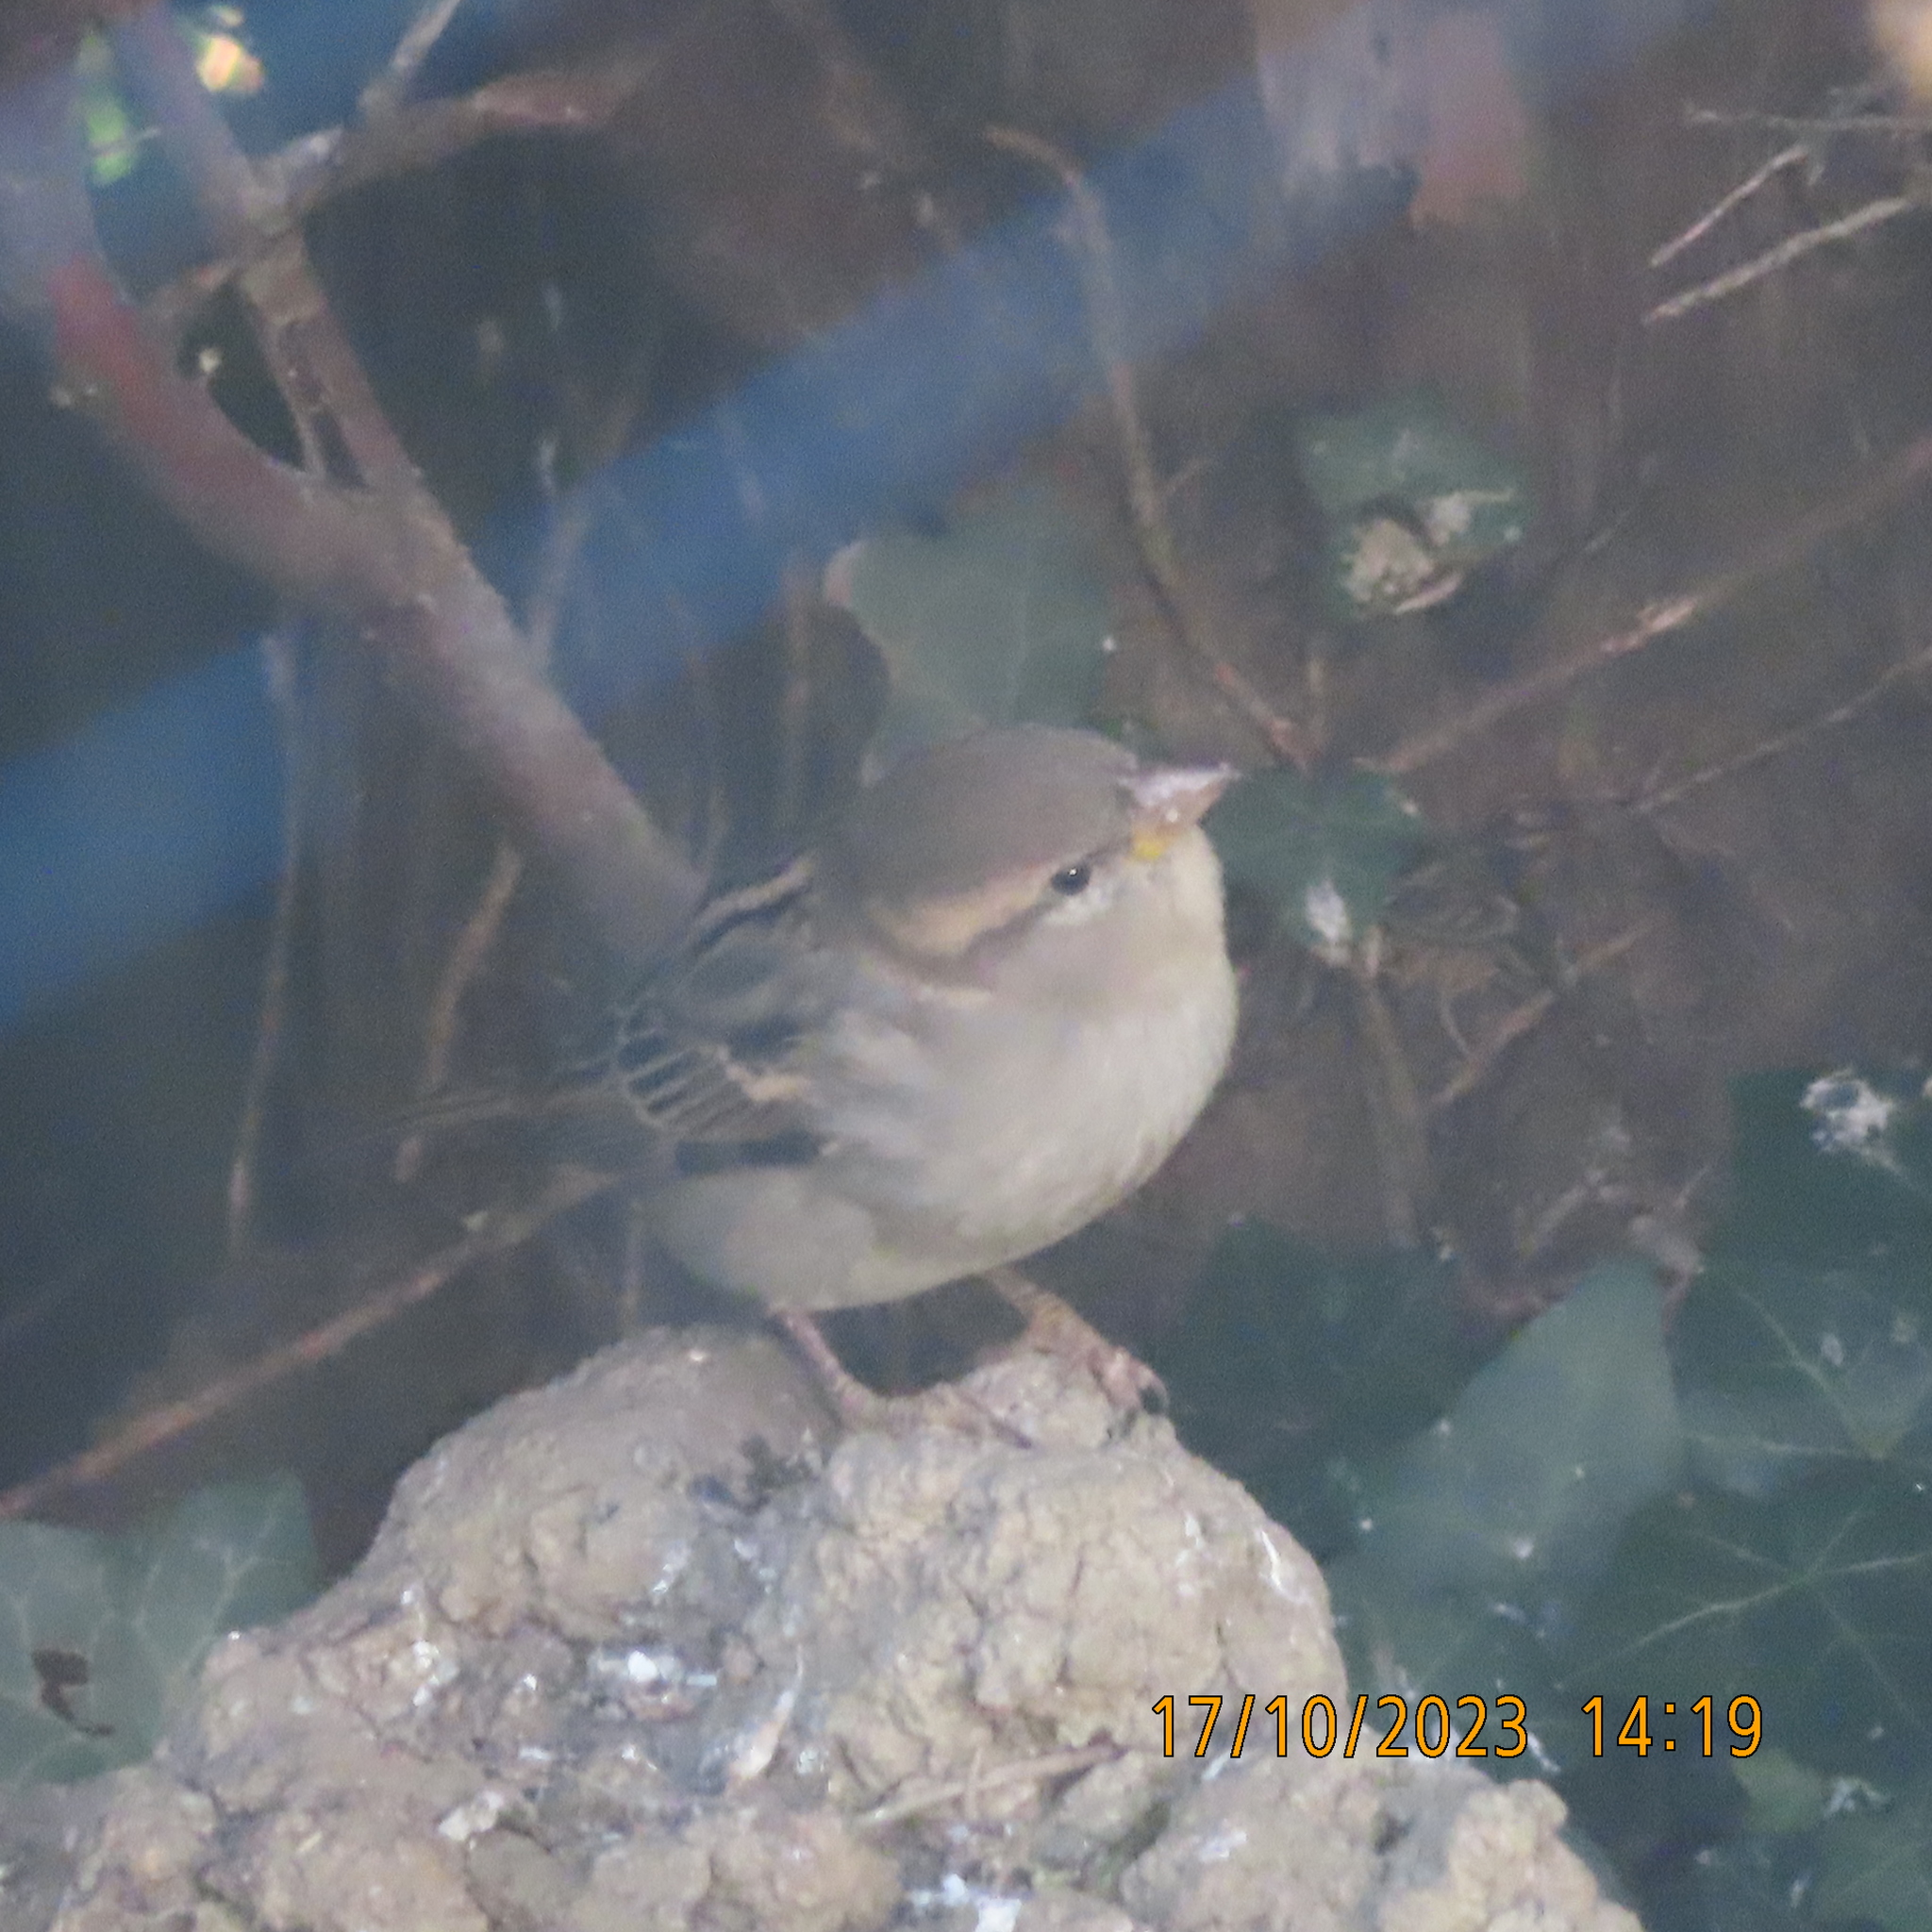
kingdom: Animalia
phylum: Chordata
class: Aves
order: Passeriformes
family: Passeridae
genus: Passer
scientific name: Passer domesticus
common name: House sparrow
